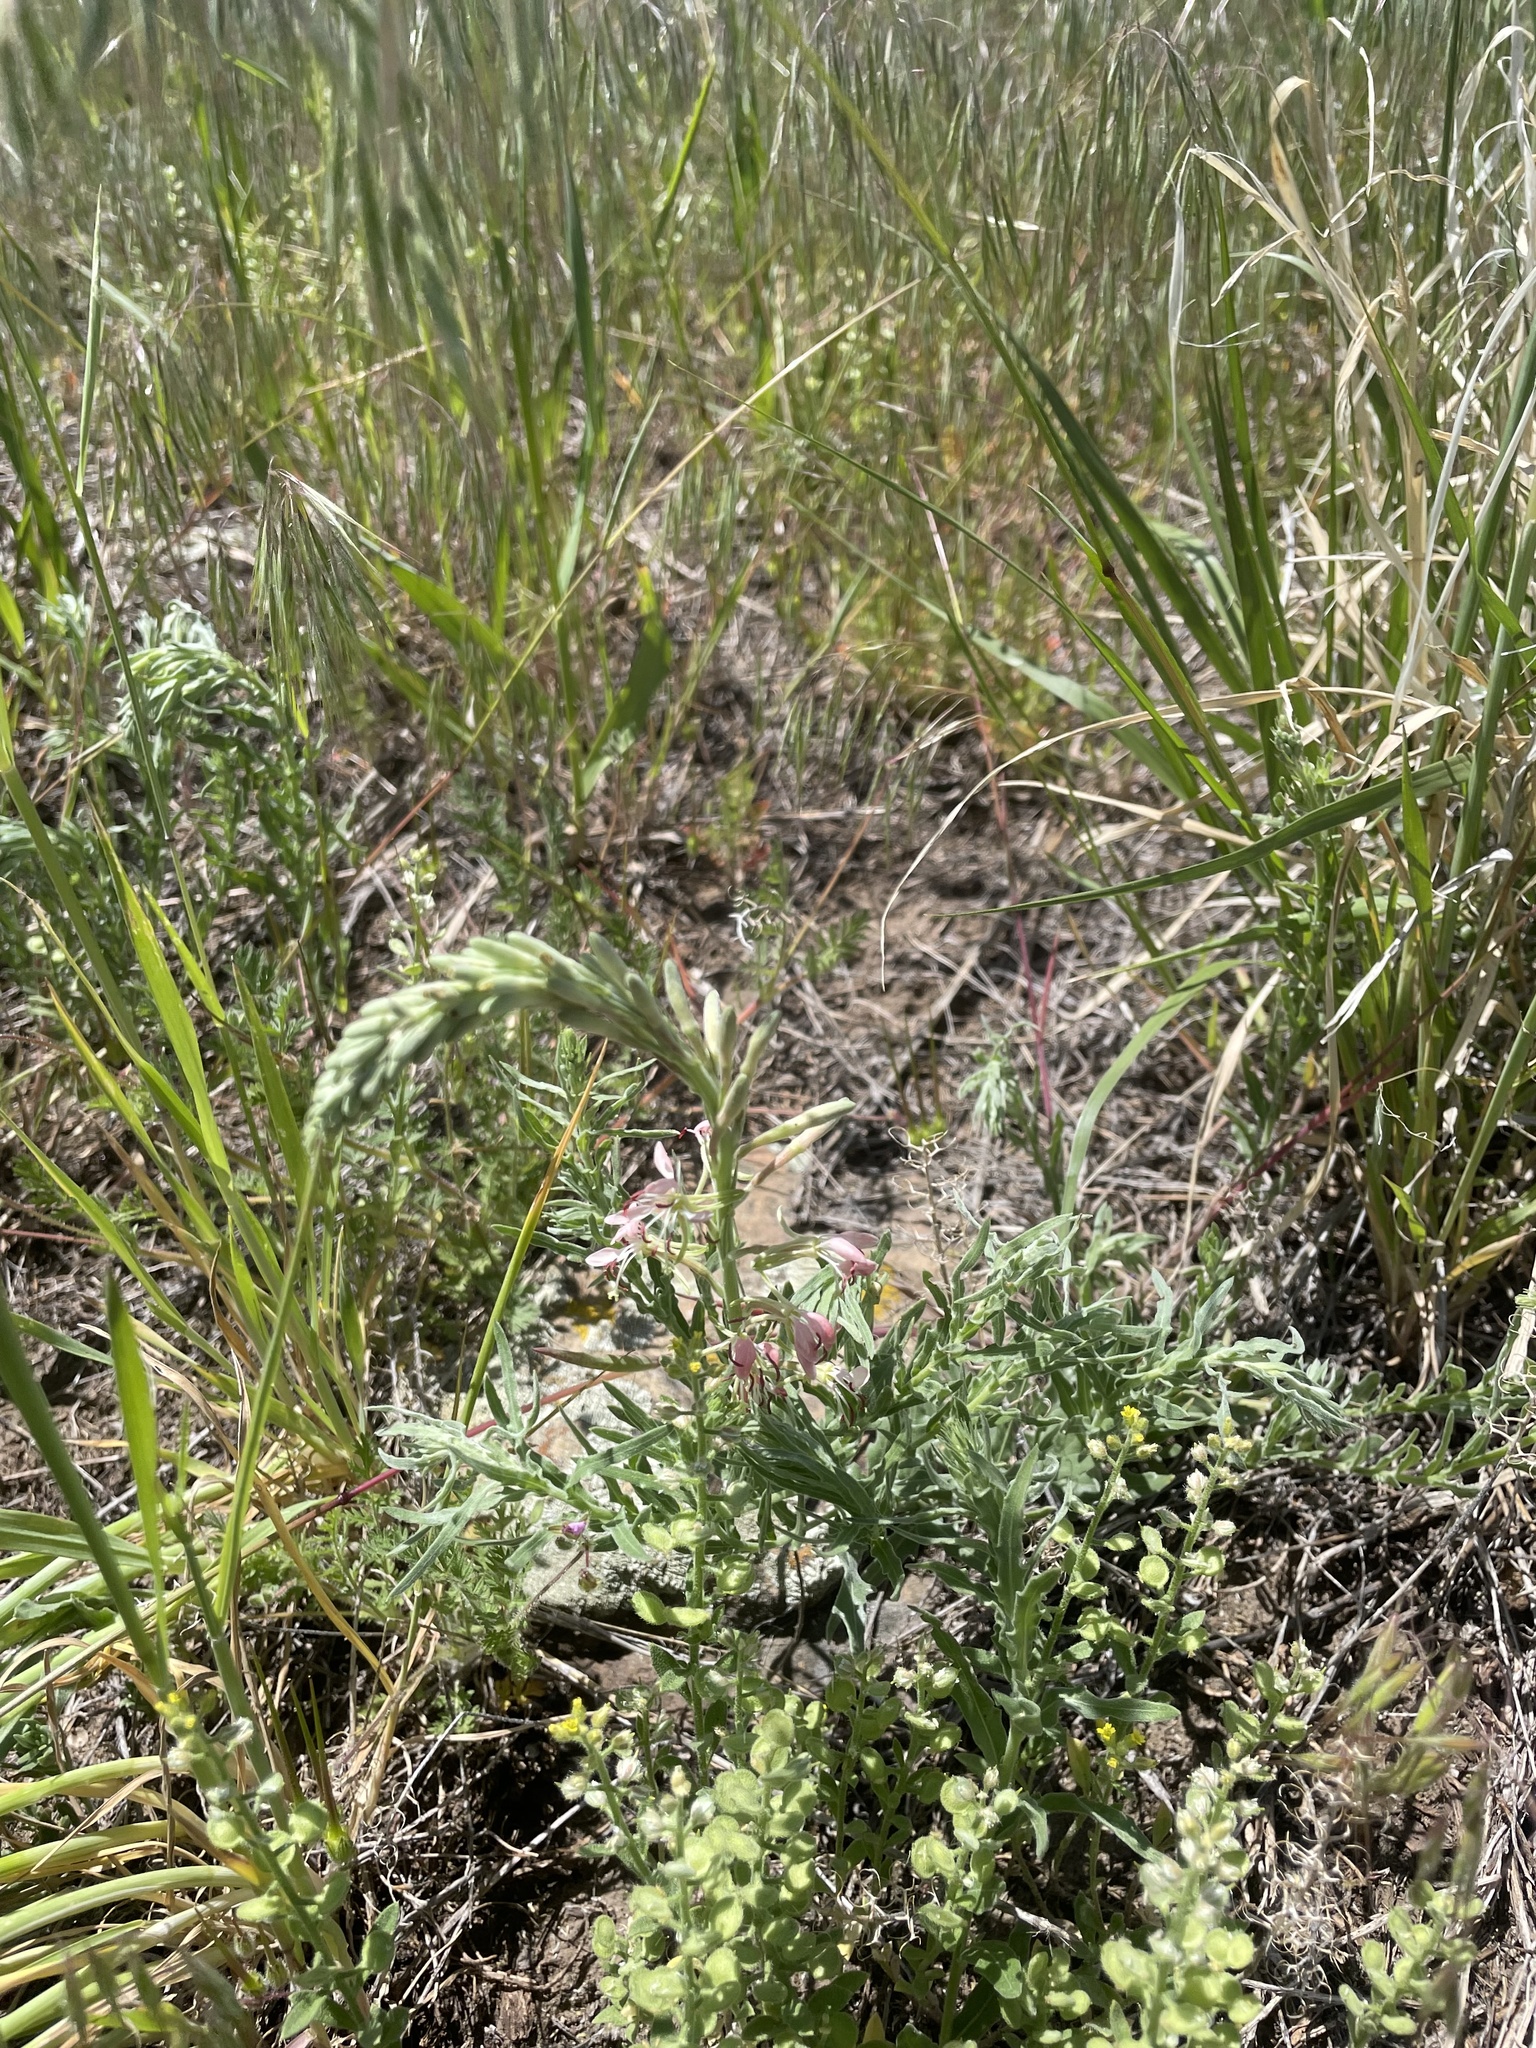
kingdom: Plantae
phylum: Tracheophyta
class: Magnoliopsida
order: Myrtales
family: Onagraceae
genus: Oenothera
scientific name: Oenothera suffrutescens
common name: Scarlet beeblossom
